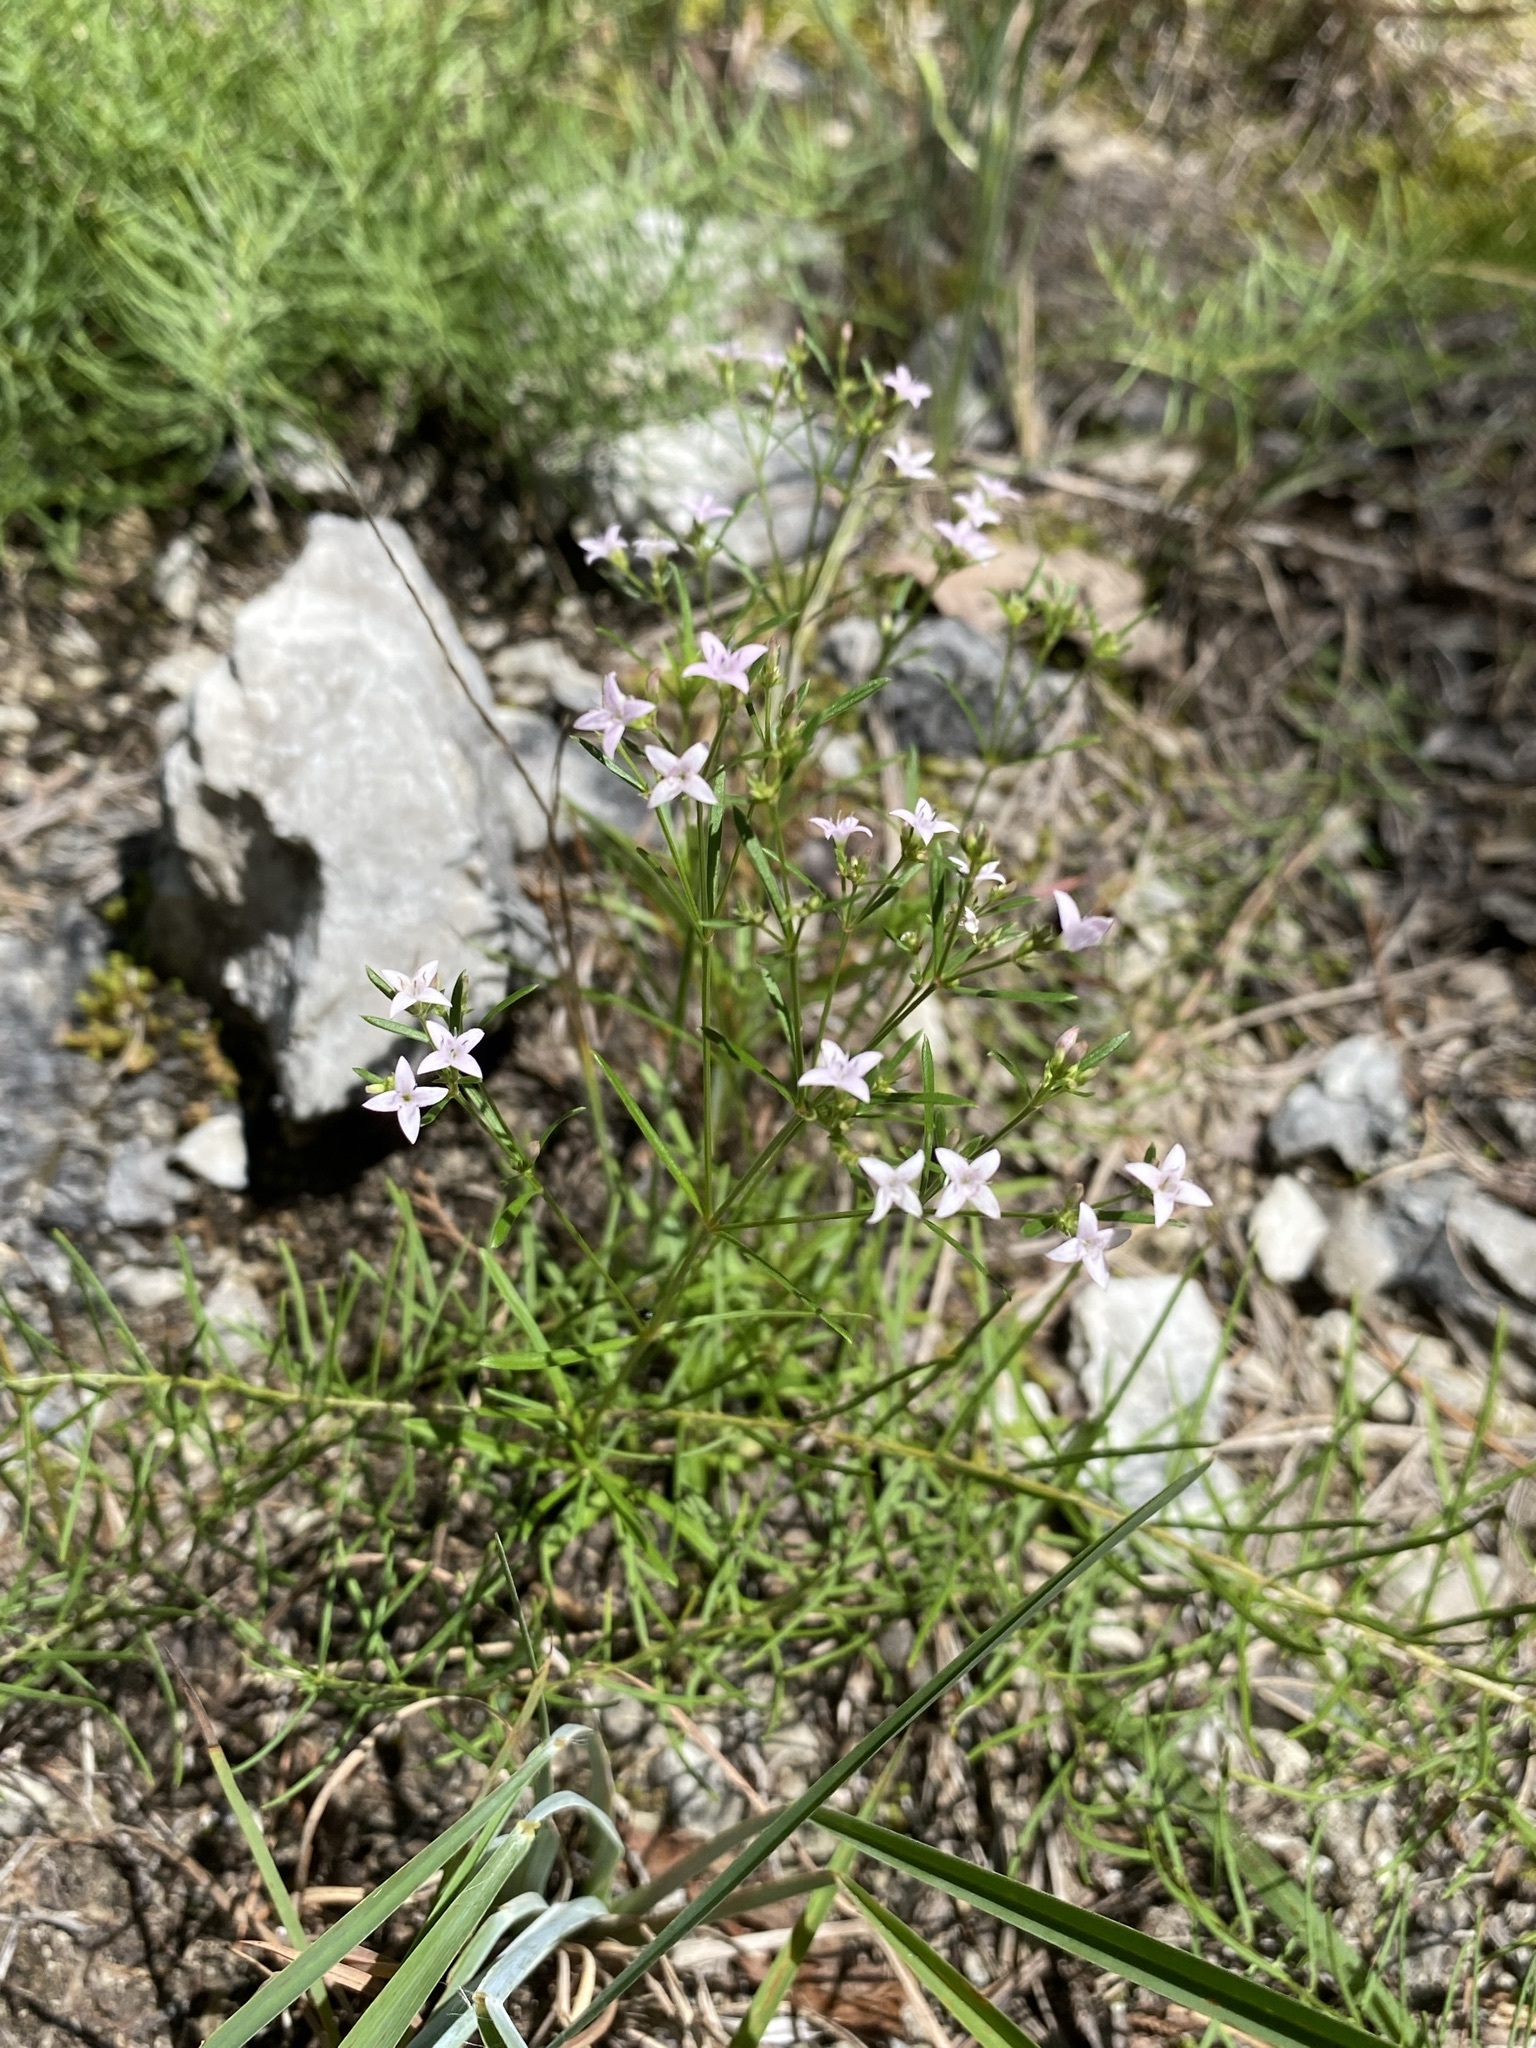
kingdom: Plantae
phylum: Tracheophyta
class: Magnoliopsida
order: Gentianales
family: Rubiaceae
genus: Stenaria
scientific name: Stenaria nigricans
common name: Diamondflowers
